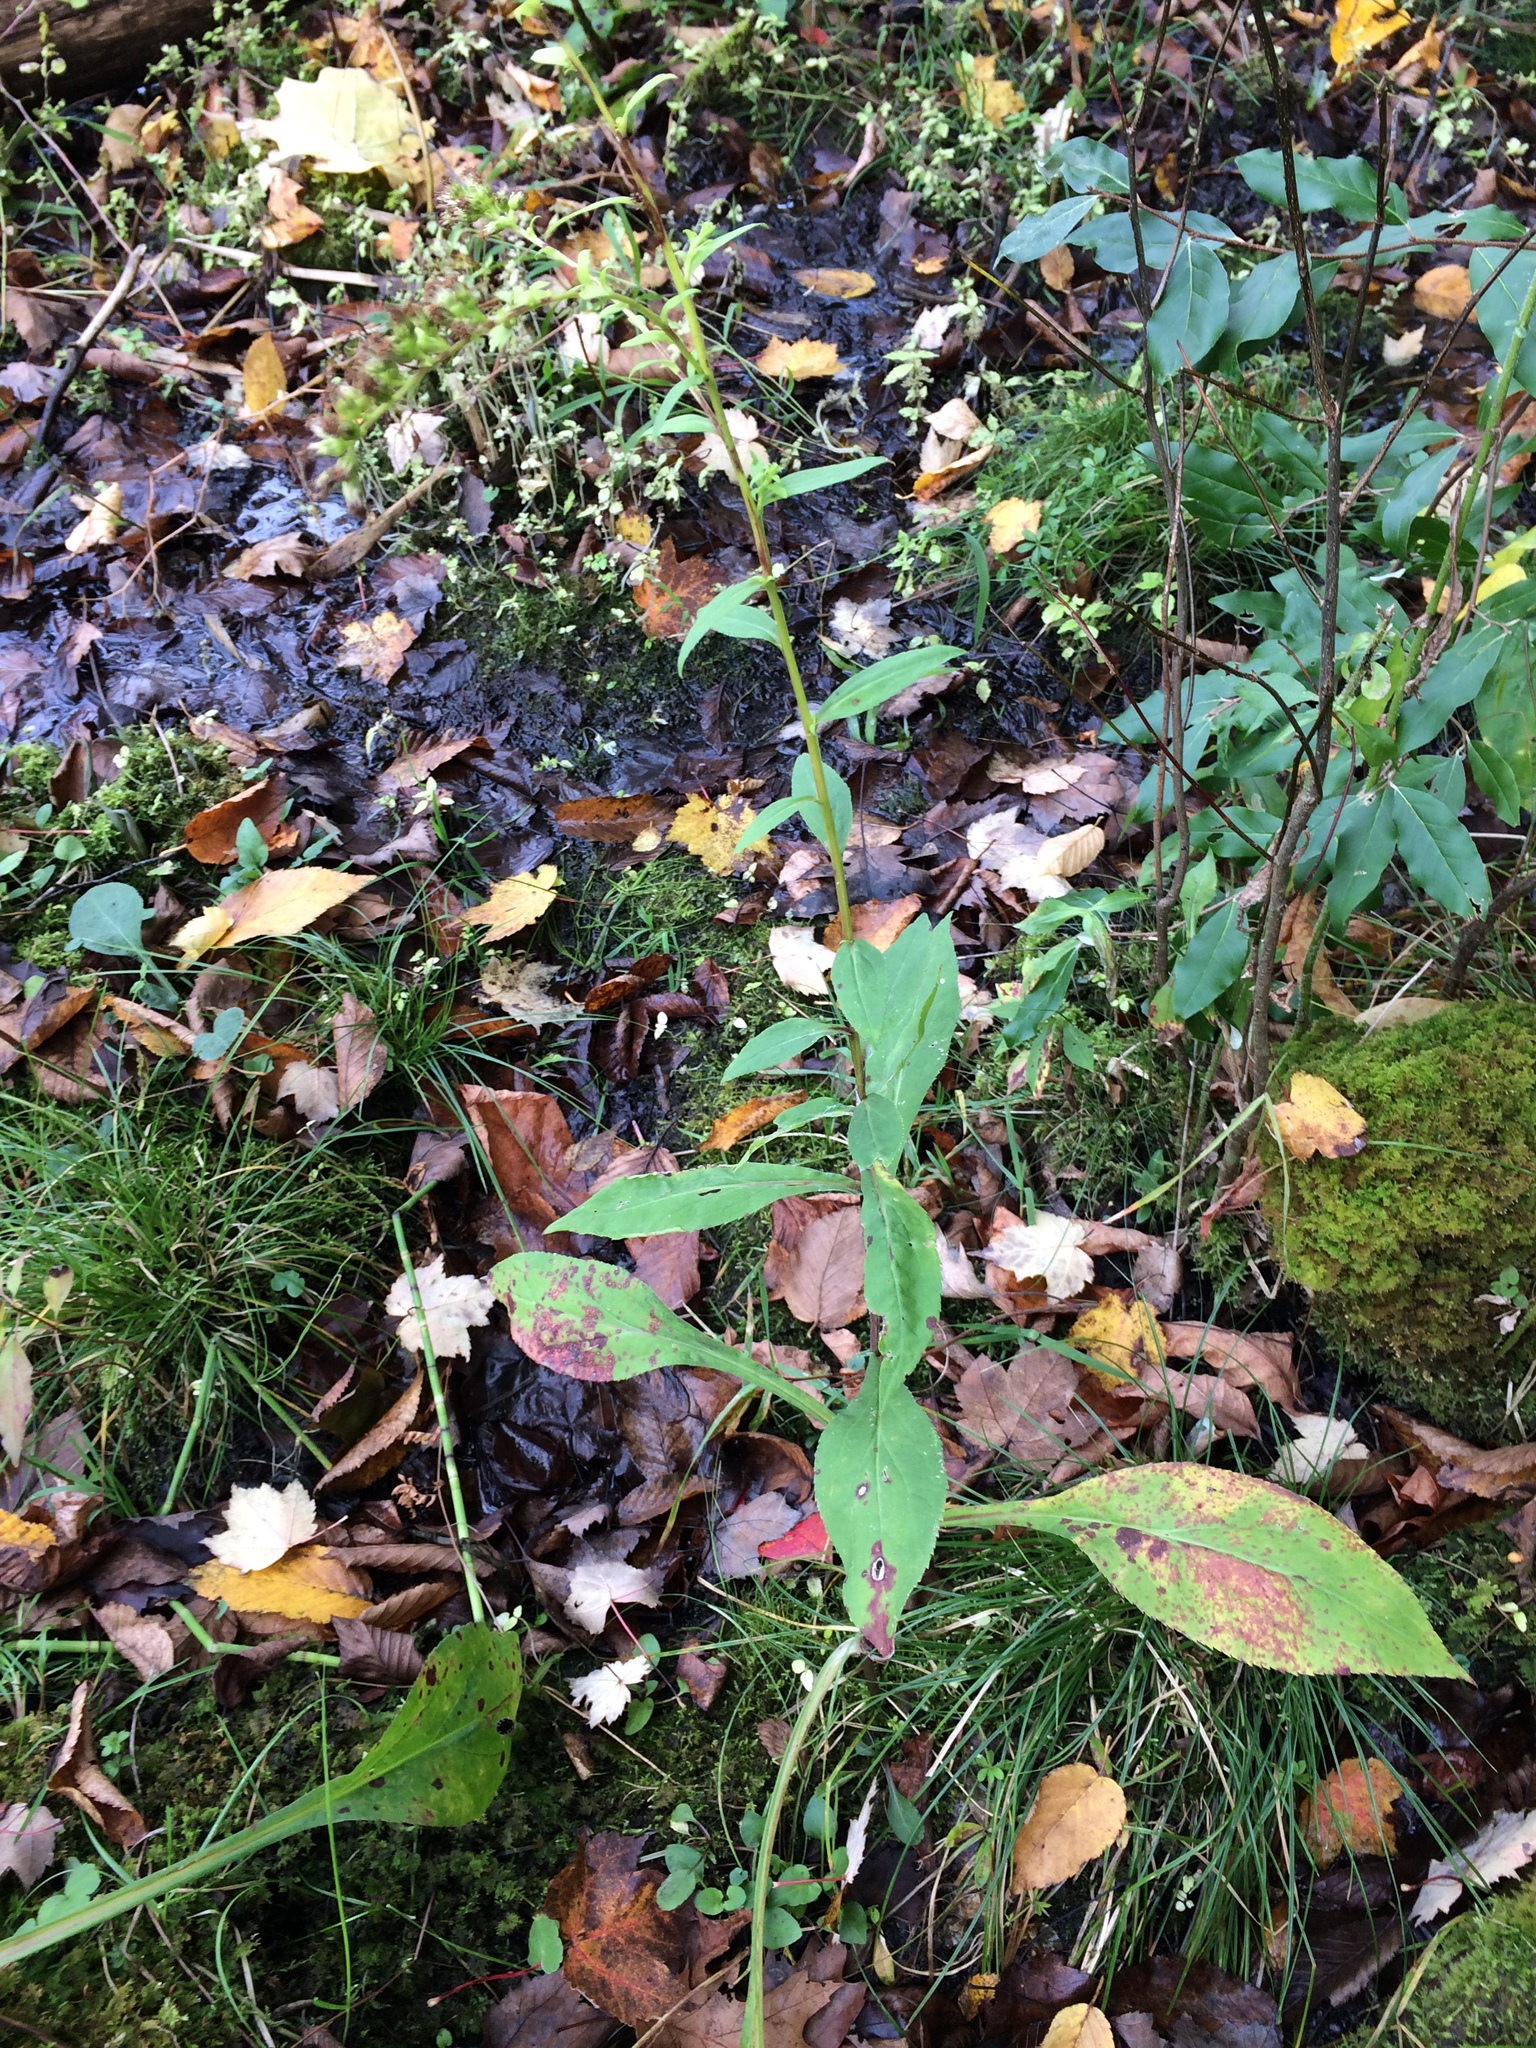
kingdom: Plantae
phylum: Tracheophyta
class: Magnoliopsida
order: Asterales
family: Asteraceae
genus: Solidago
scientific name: Solidago patula
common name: Rough-leaf goldenrod
